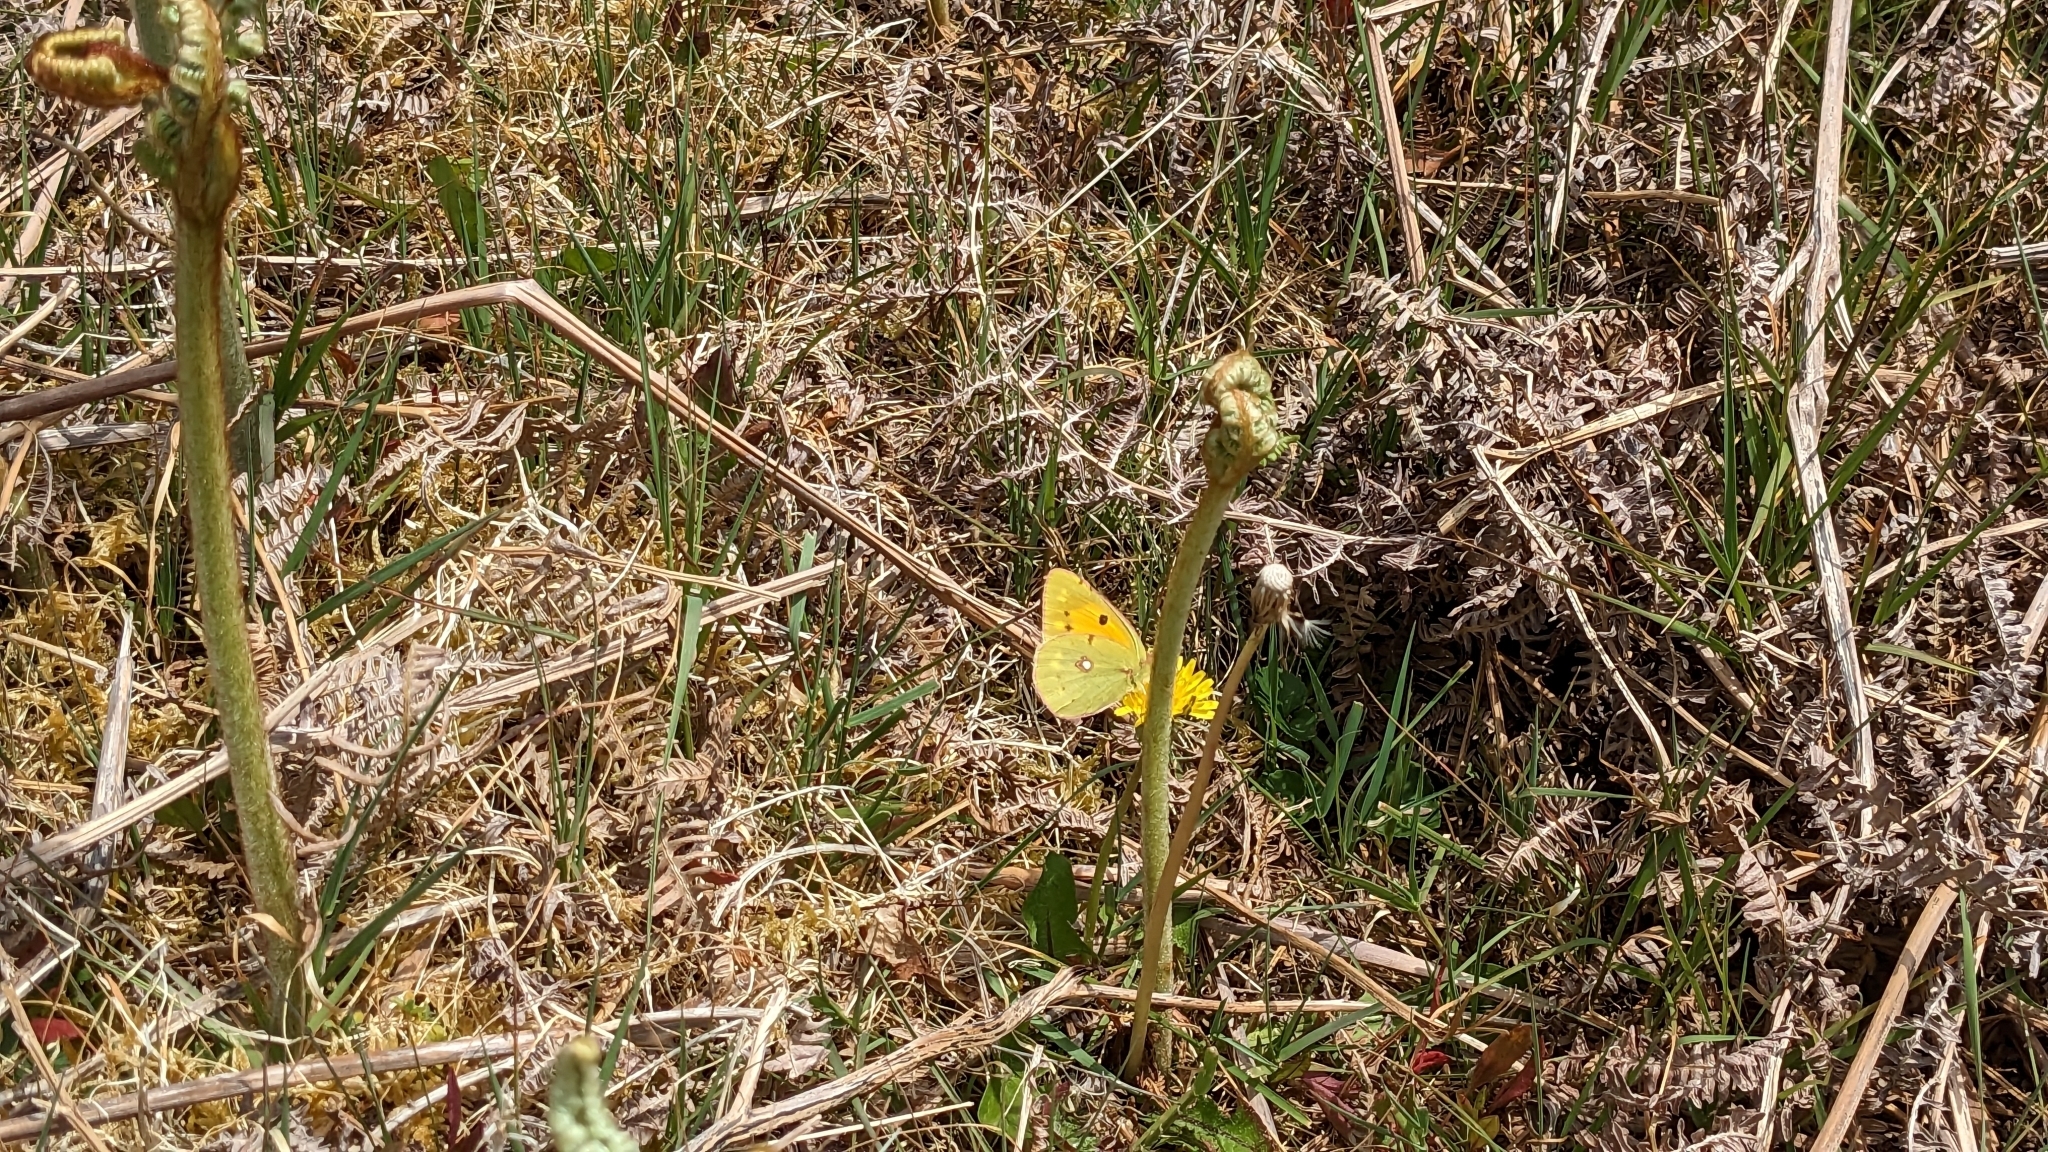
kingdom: Animalia
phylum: Arthropoda
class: Insecta
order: Lepidoptera
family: Pieridae
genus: Colias
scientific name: Colias croceus
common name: Clouded yellow
